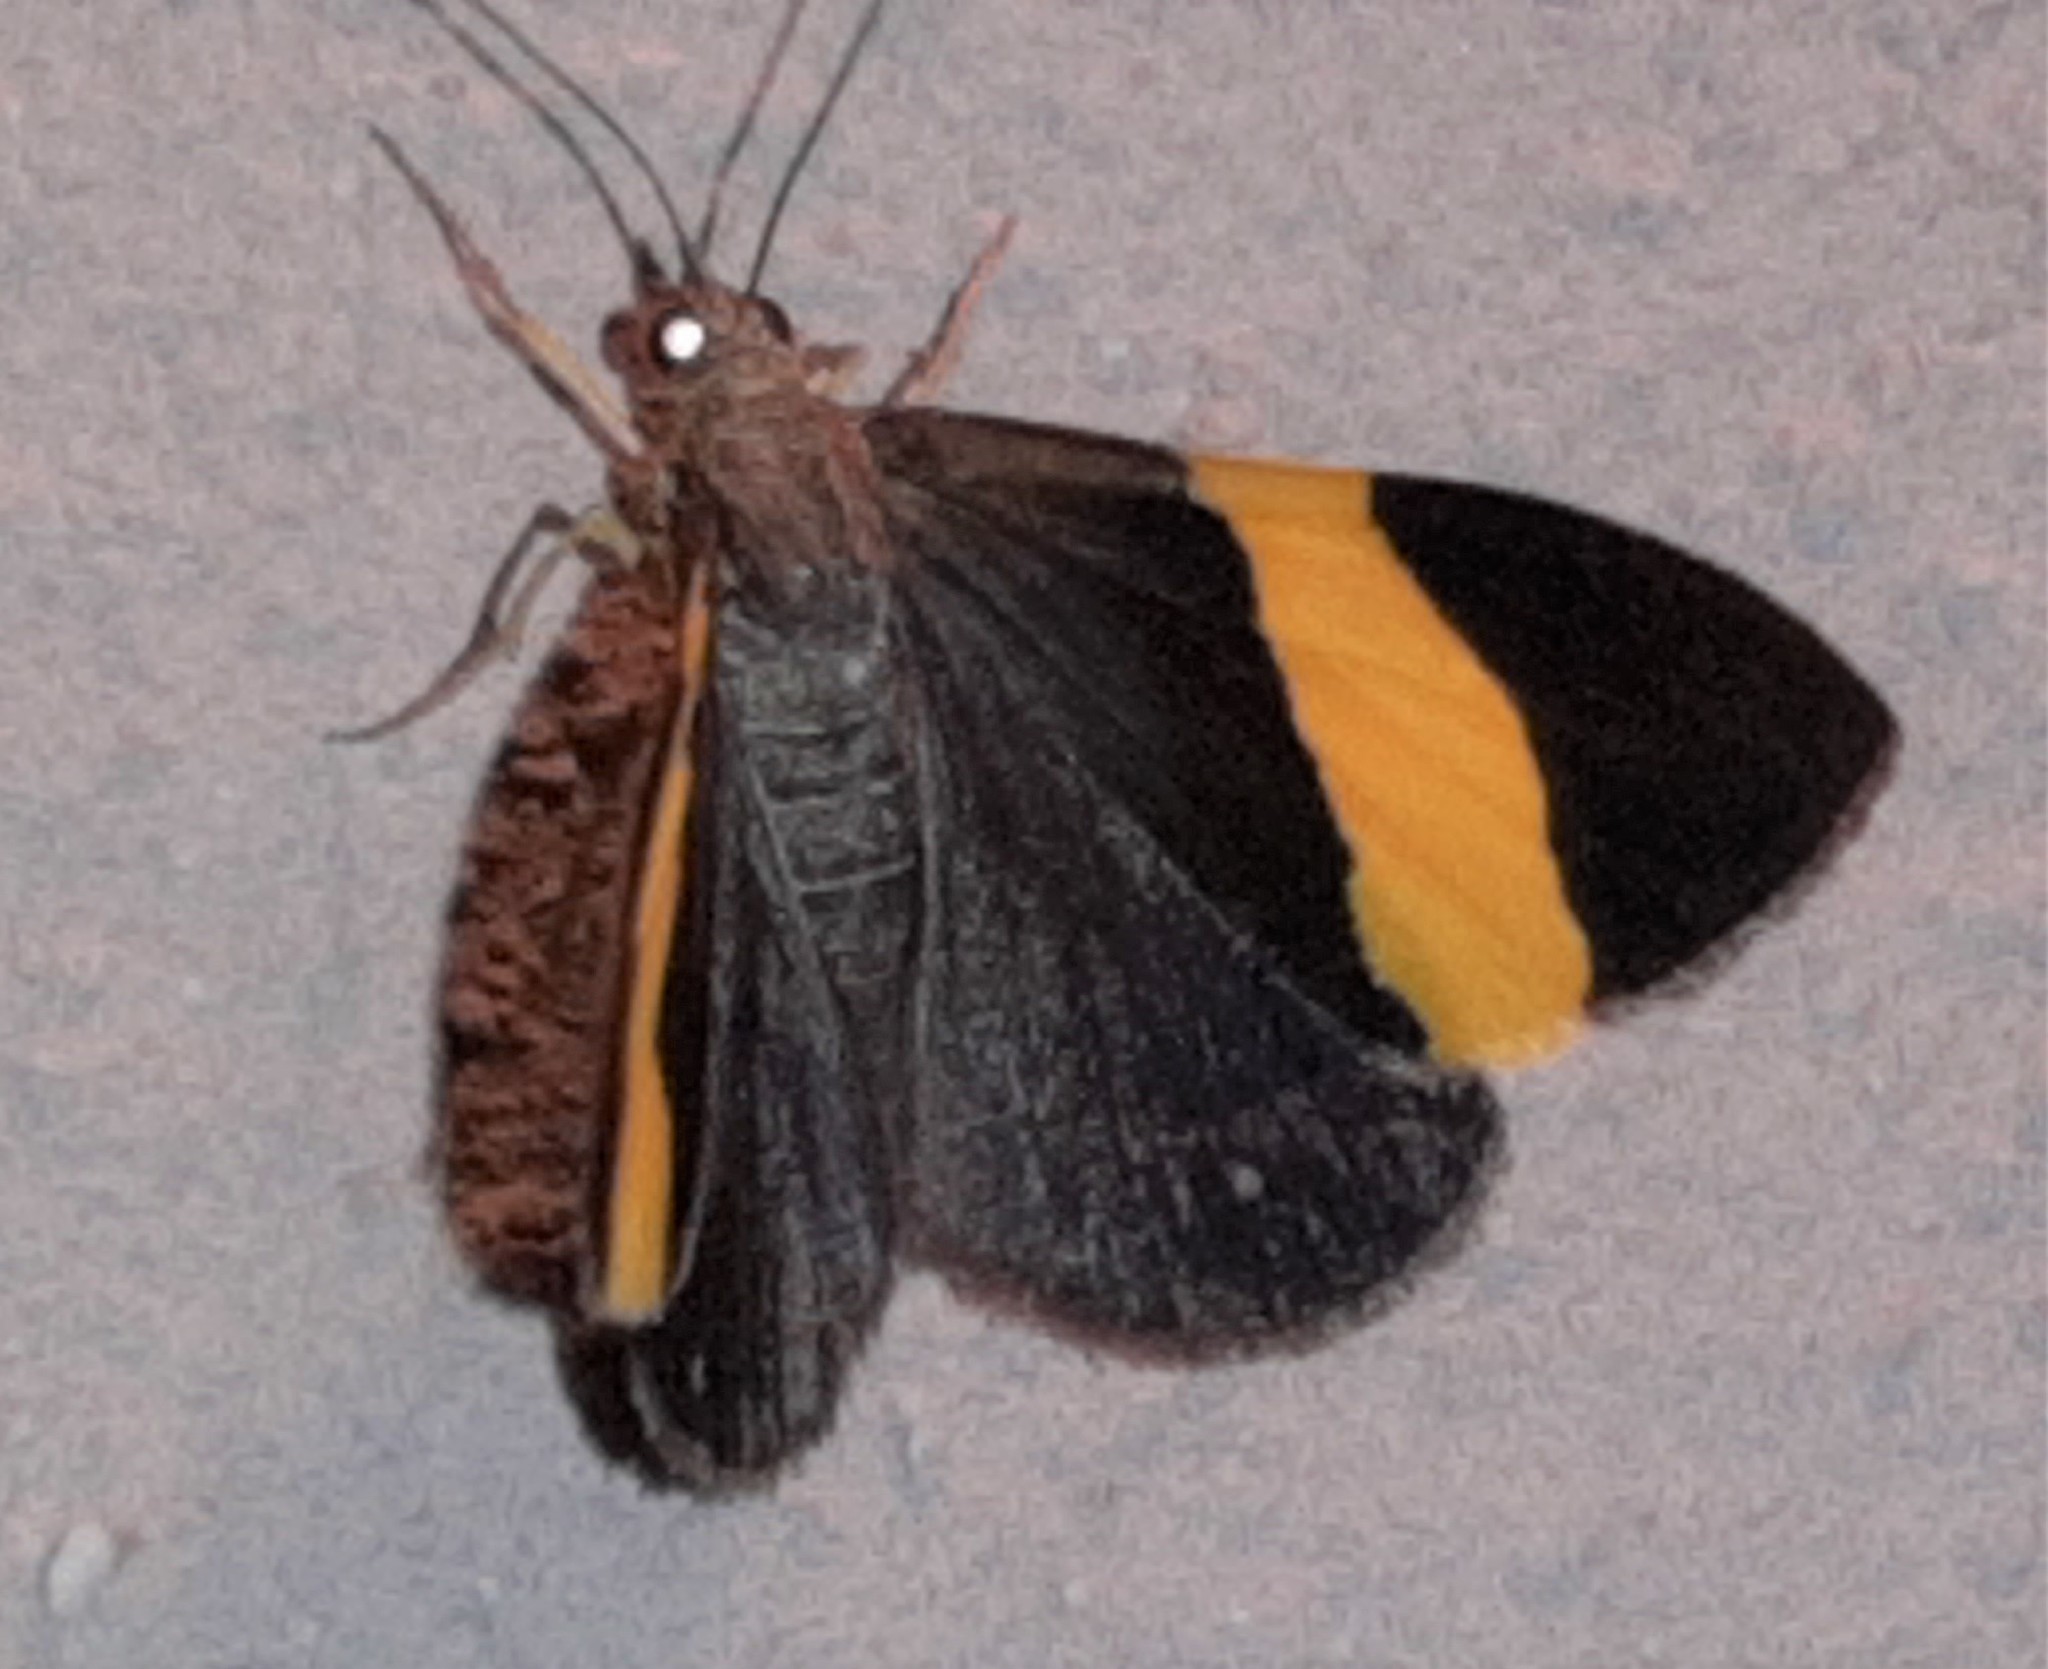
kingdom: Animalia
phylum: Arthropoda
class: Insecta
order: Lepidoptera
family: Geometridae
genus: Hagnagora
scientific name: Hagnagora ephestris
